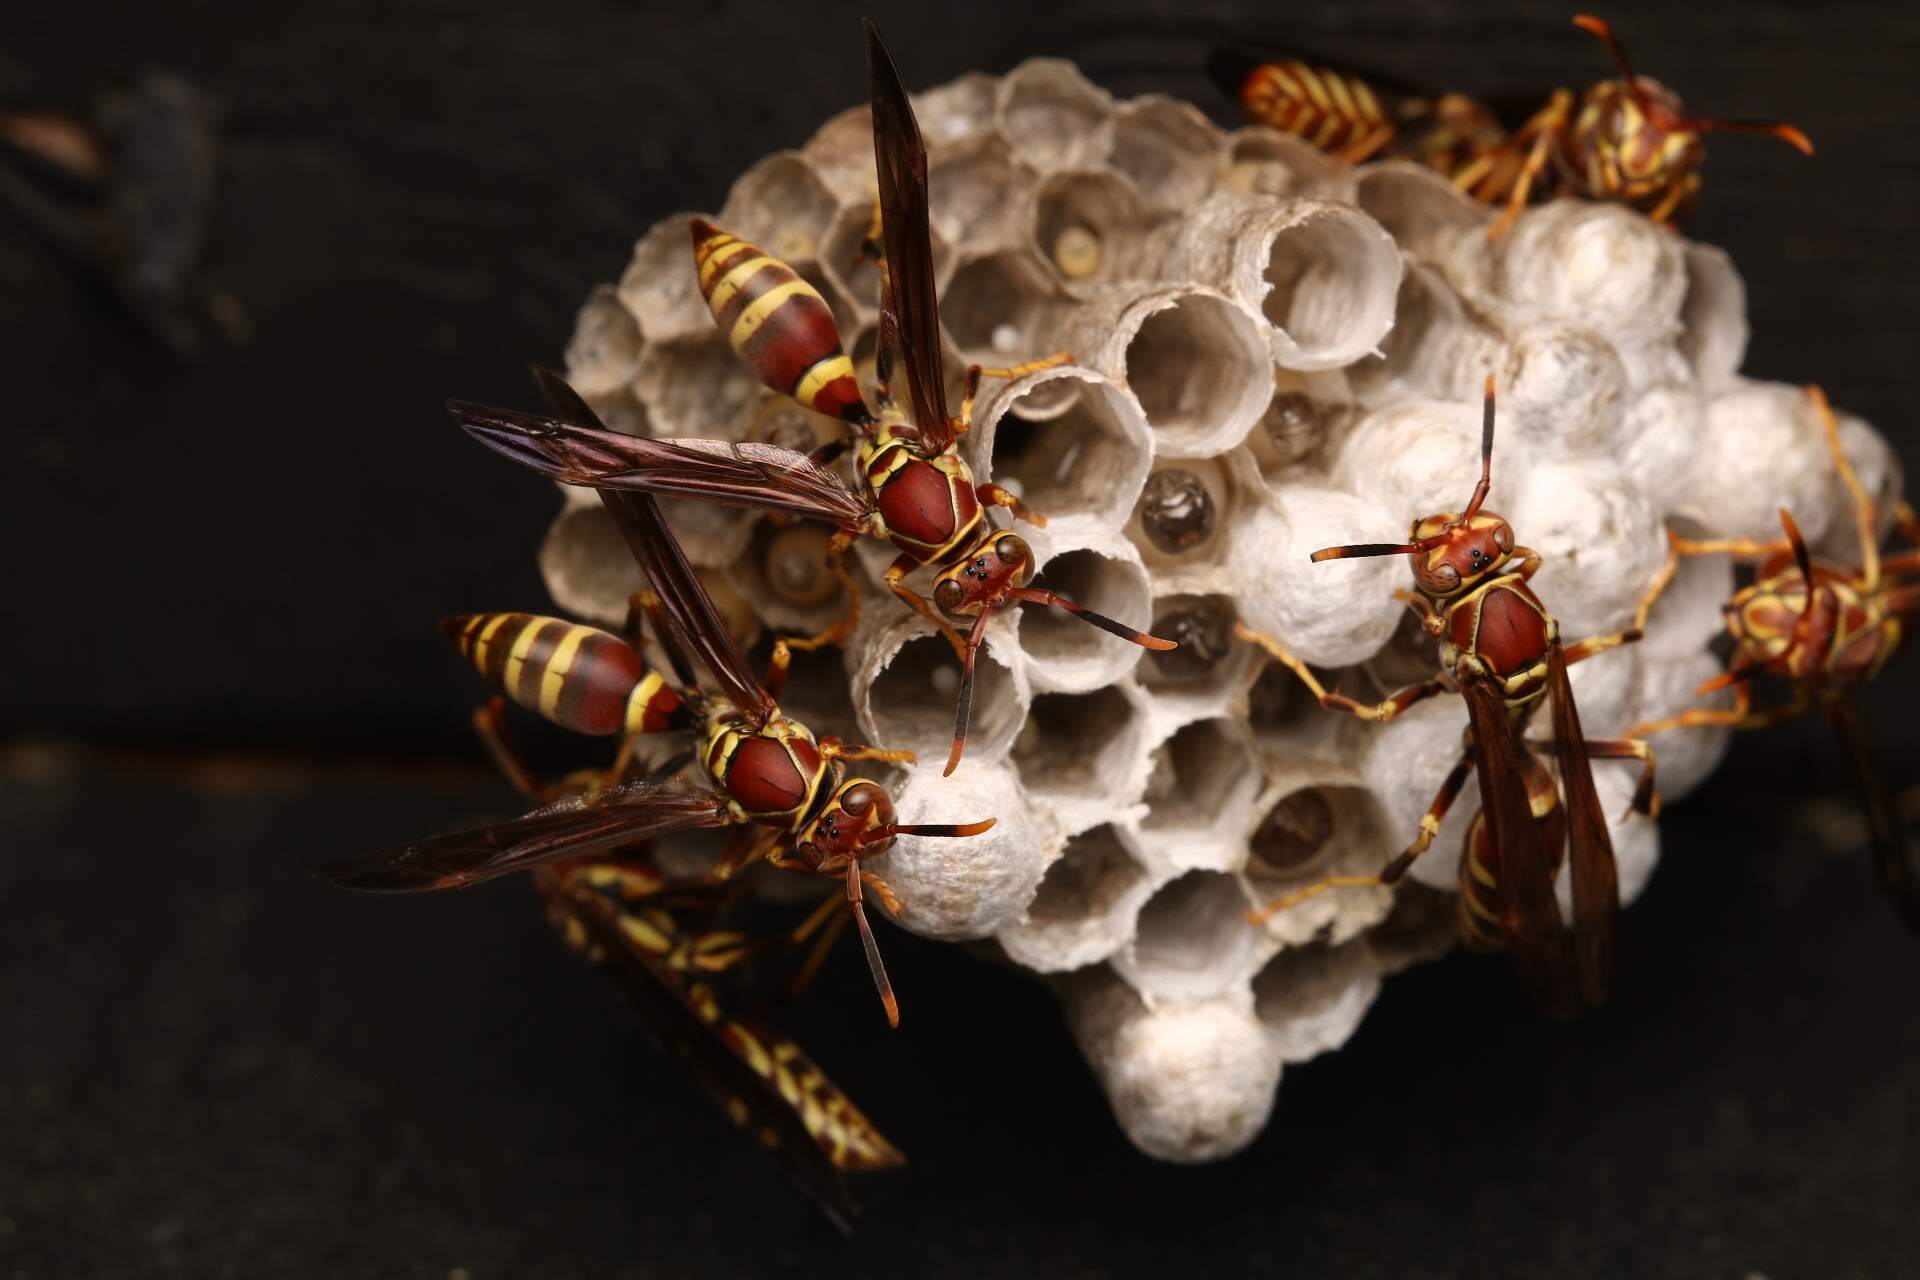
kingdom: Animalia
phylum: Arthropoda
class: Insecta
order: Hymenoptera
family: Eumenidae
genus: Polistes
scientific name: Polistes exclamans
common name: Paper wasp
